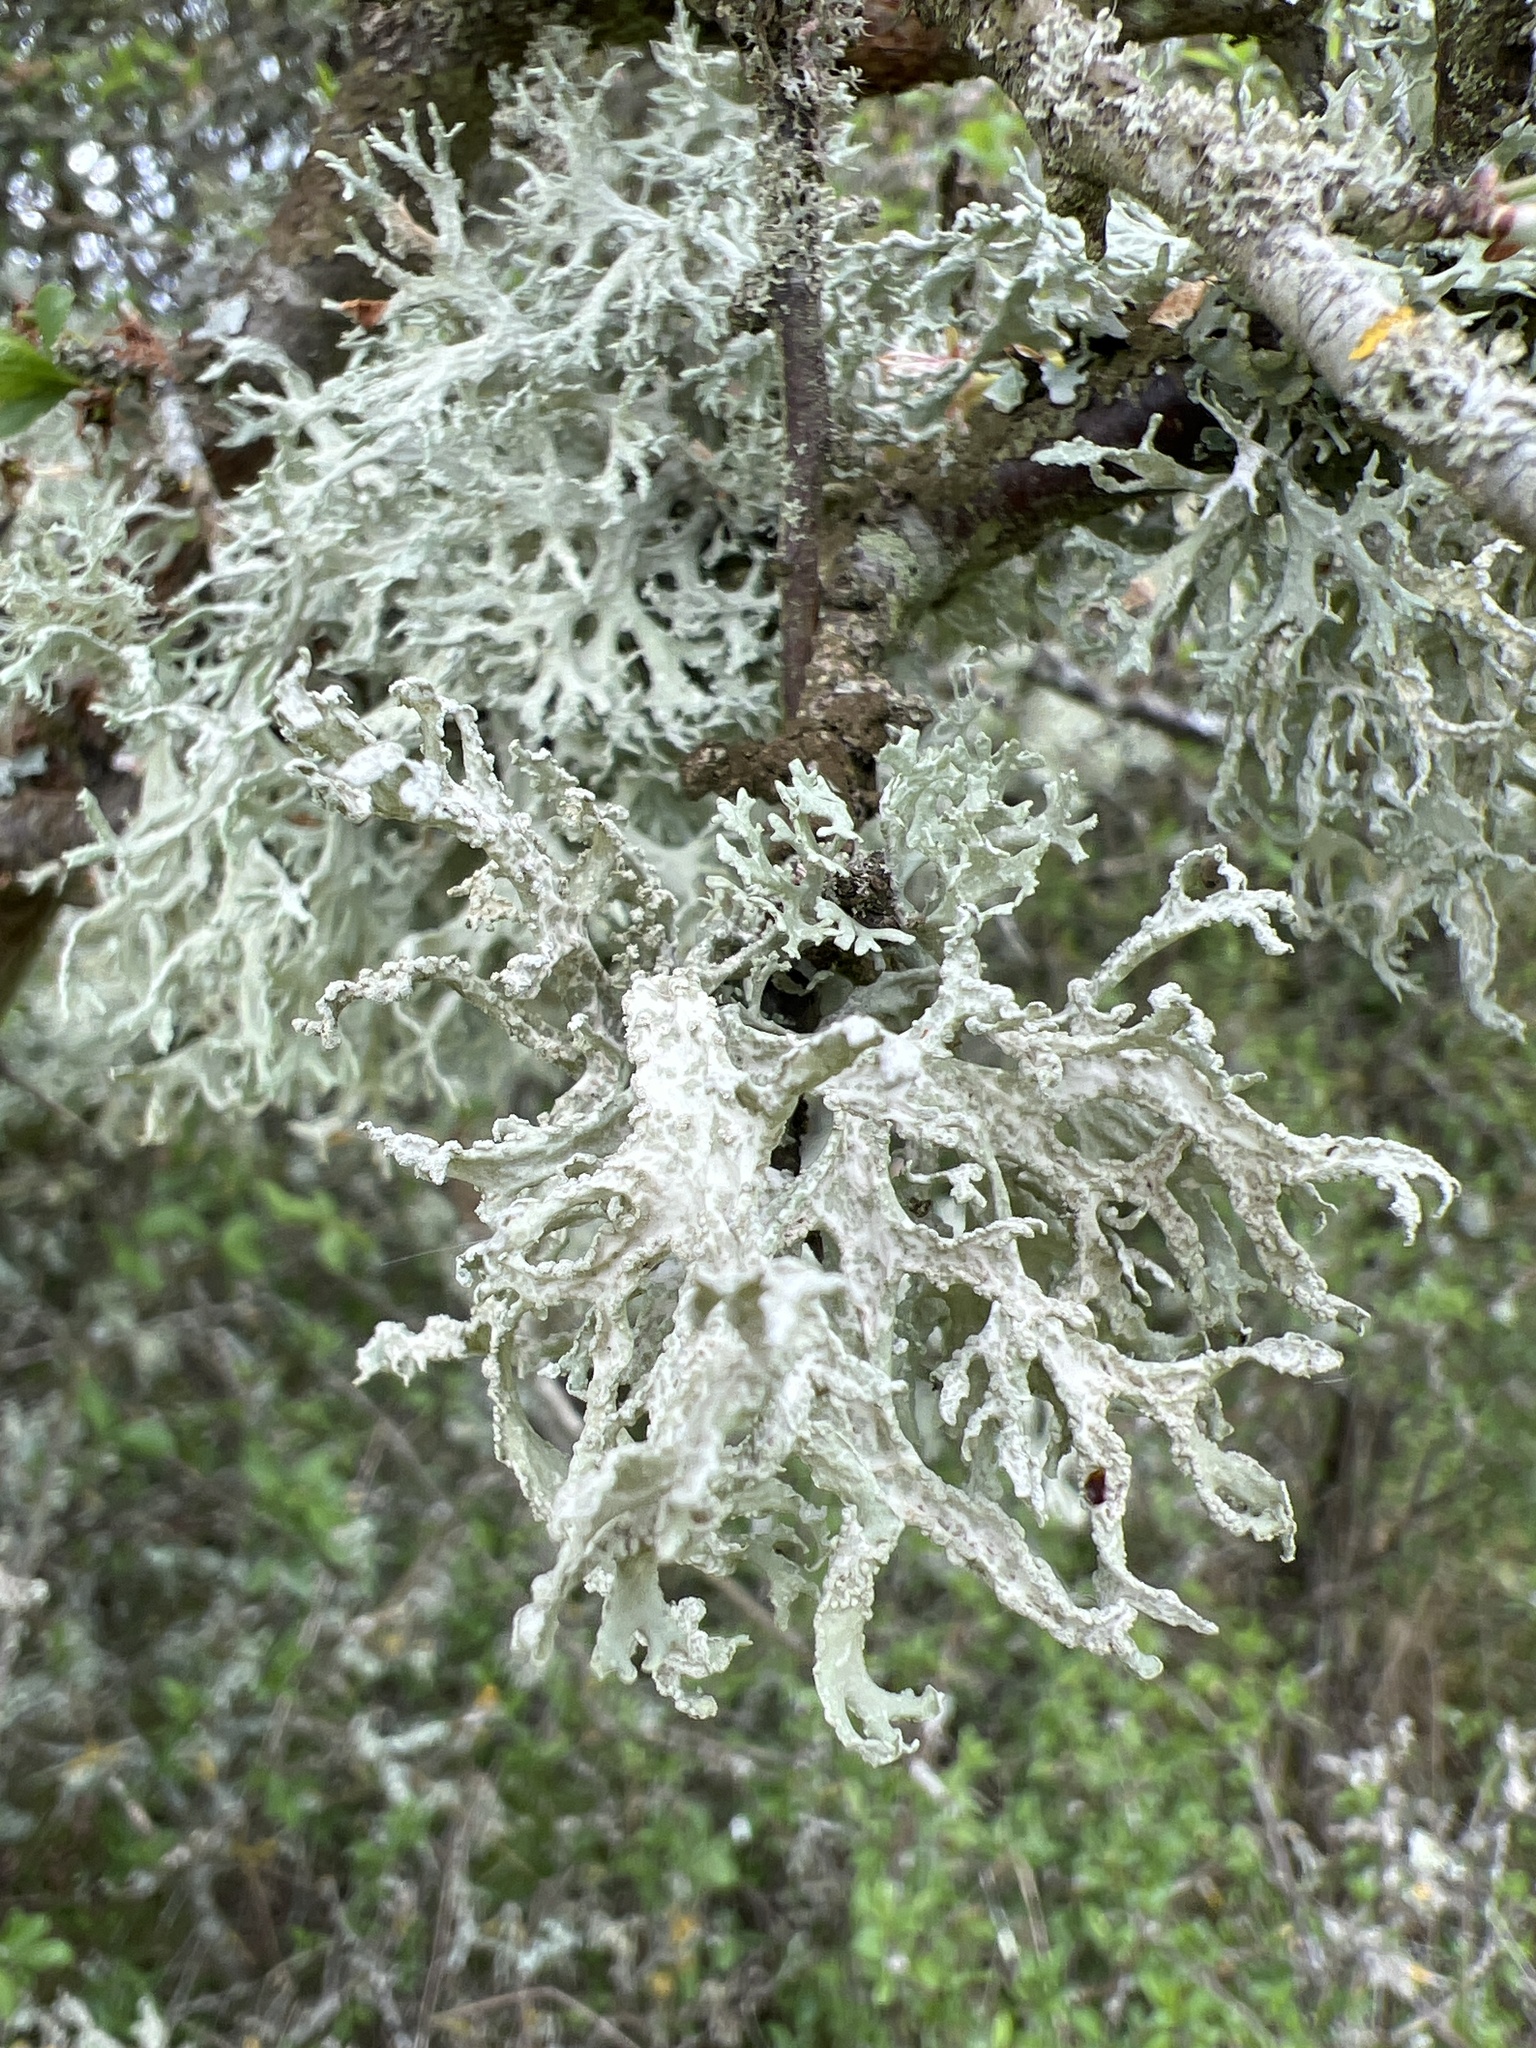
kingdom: Fungi
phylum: Ascomycota
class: Lecanoromycetes
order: Lecanorales
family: Parmeliaceae
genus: Evernia
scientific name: Evernia prunastri
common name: Oak moss
